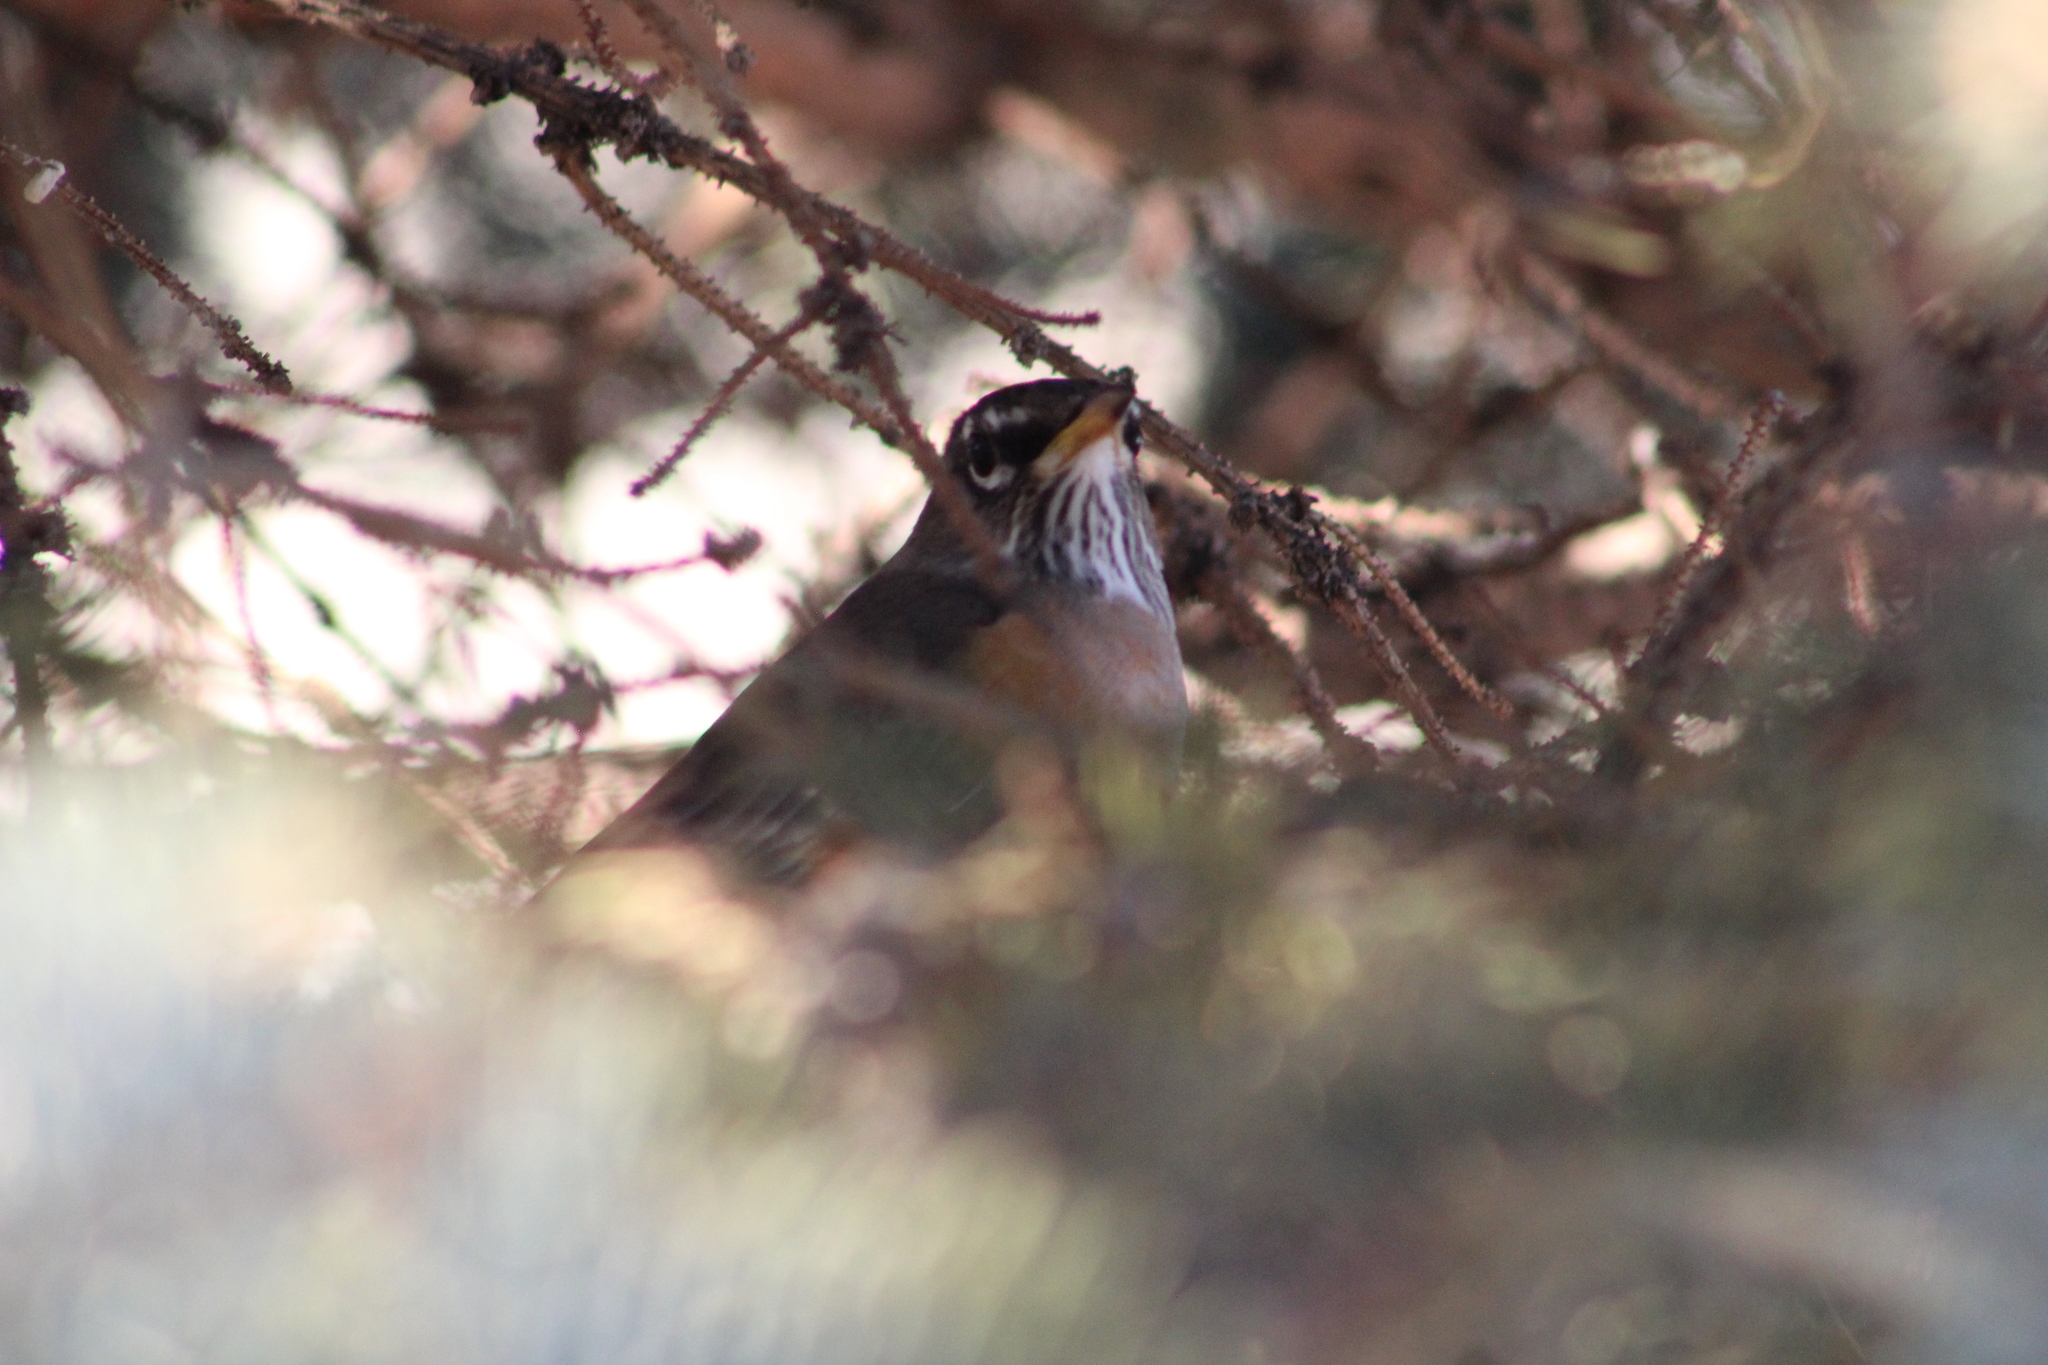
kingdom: Animalia
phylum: Chordata
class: Aves
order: Passeriformes
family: Turdidae
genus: Turdus
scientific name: Turdus migratorius
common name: American robin
